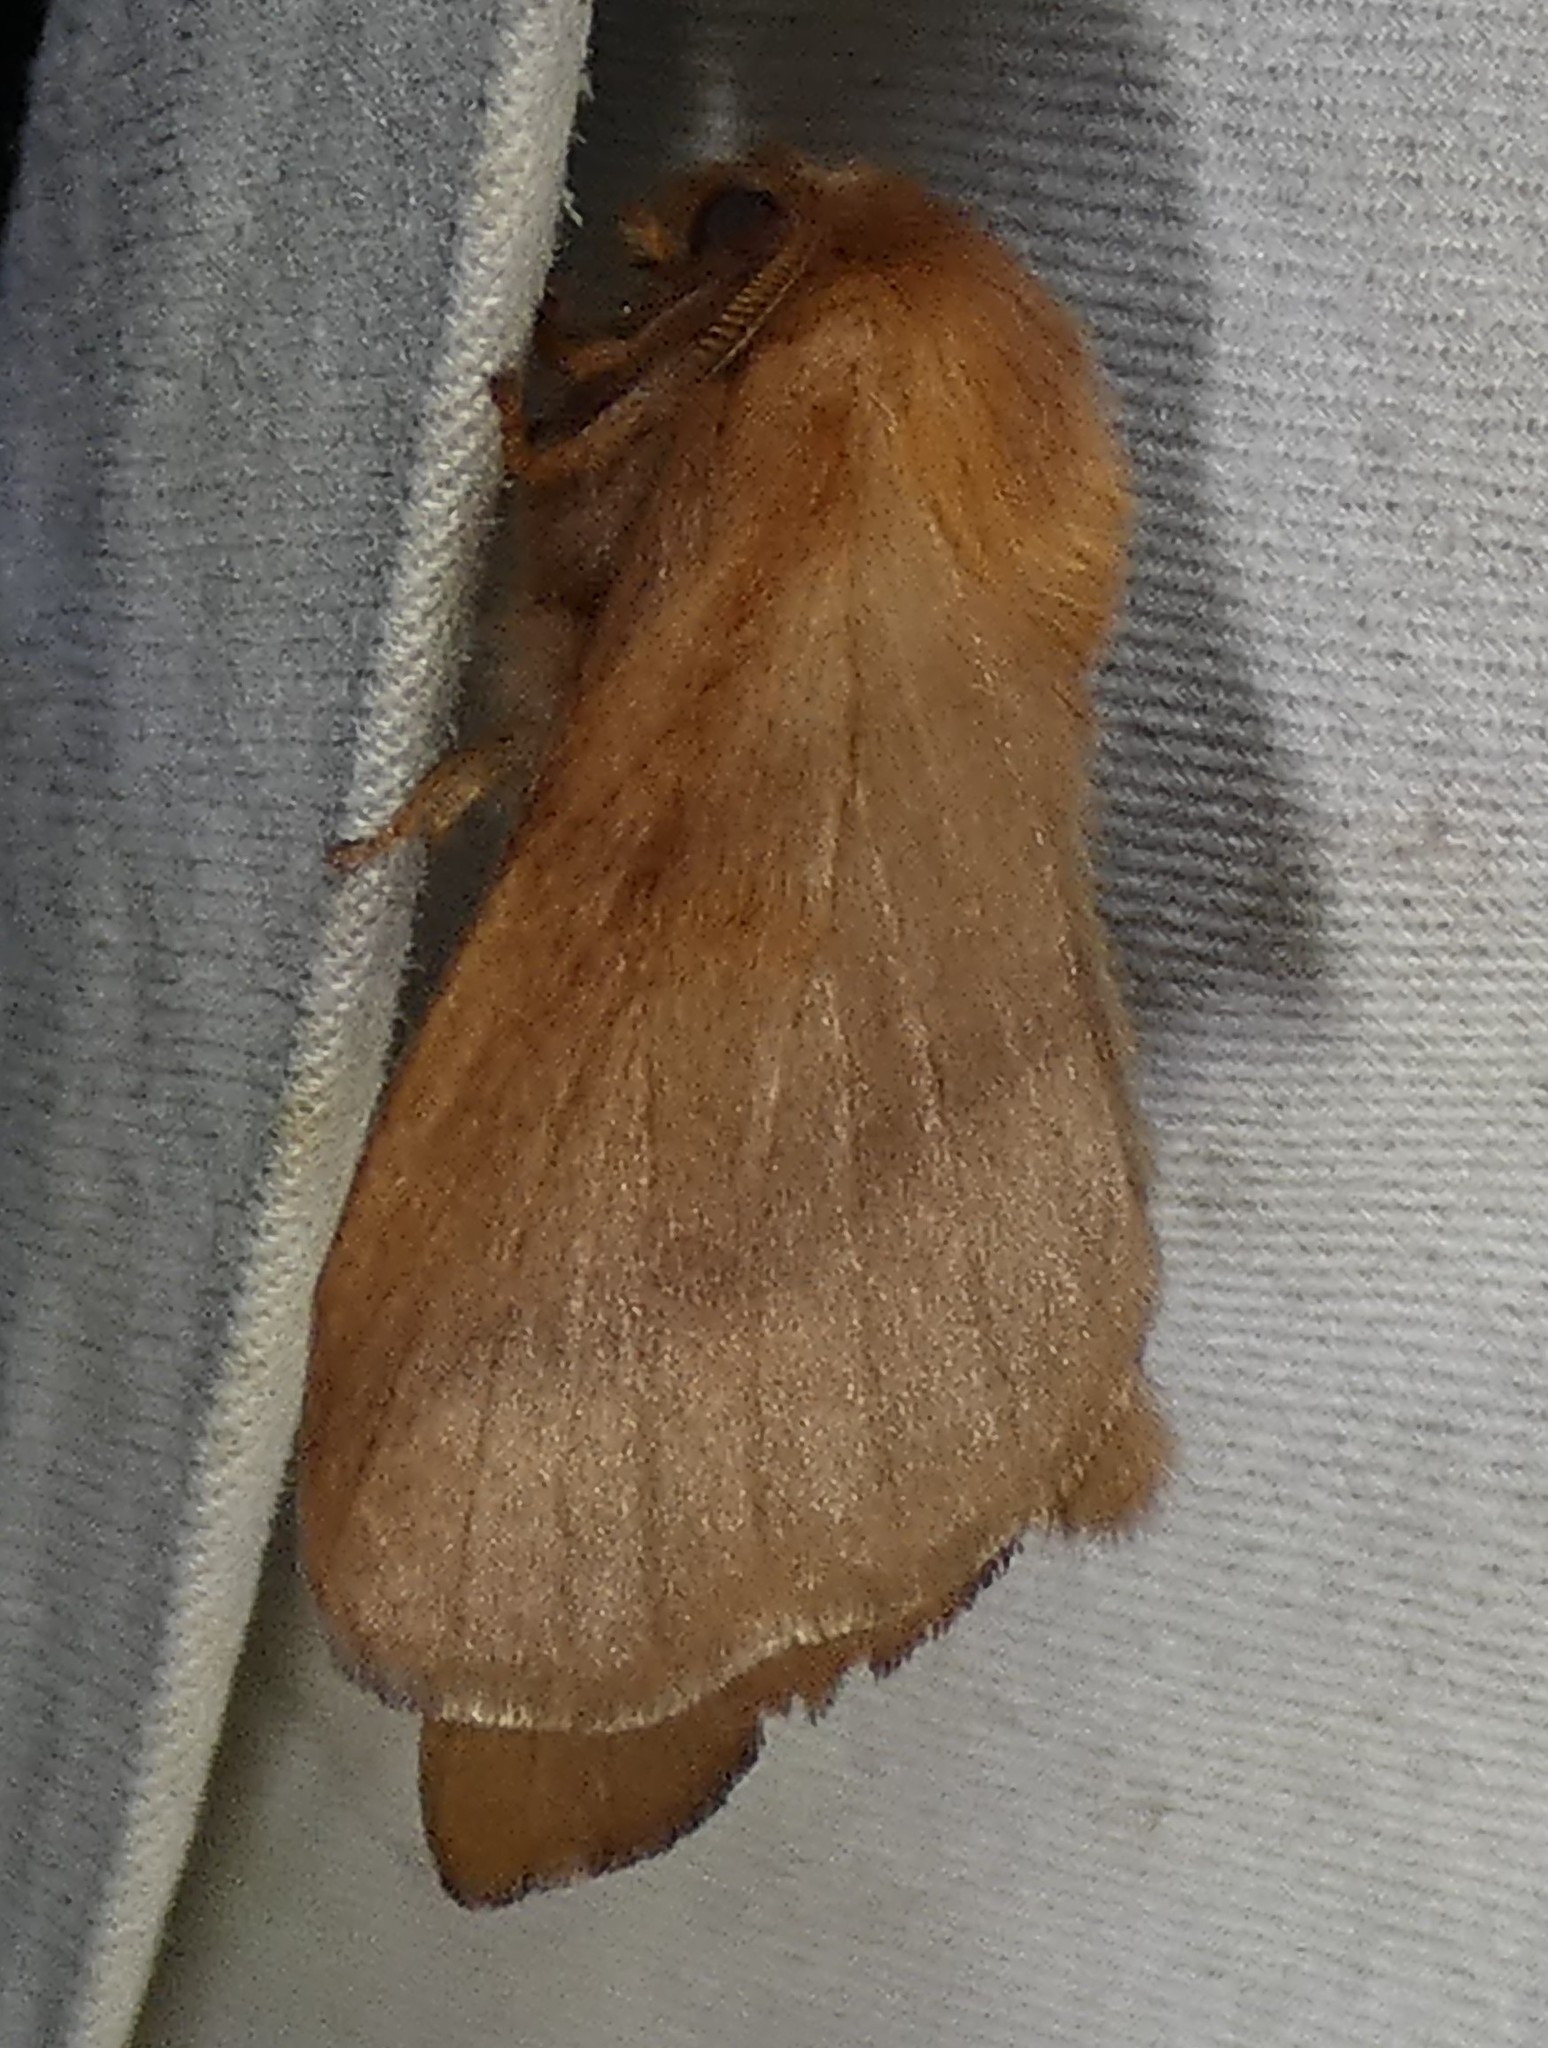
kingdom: Animalia
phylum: Arthropoda
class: Insecta
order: Lepidoptera
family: Lasiocampidae
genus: Malacosoma
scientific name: Malacosoma disstria
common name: Forest tent caterpillar
